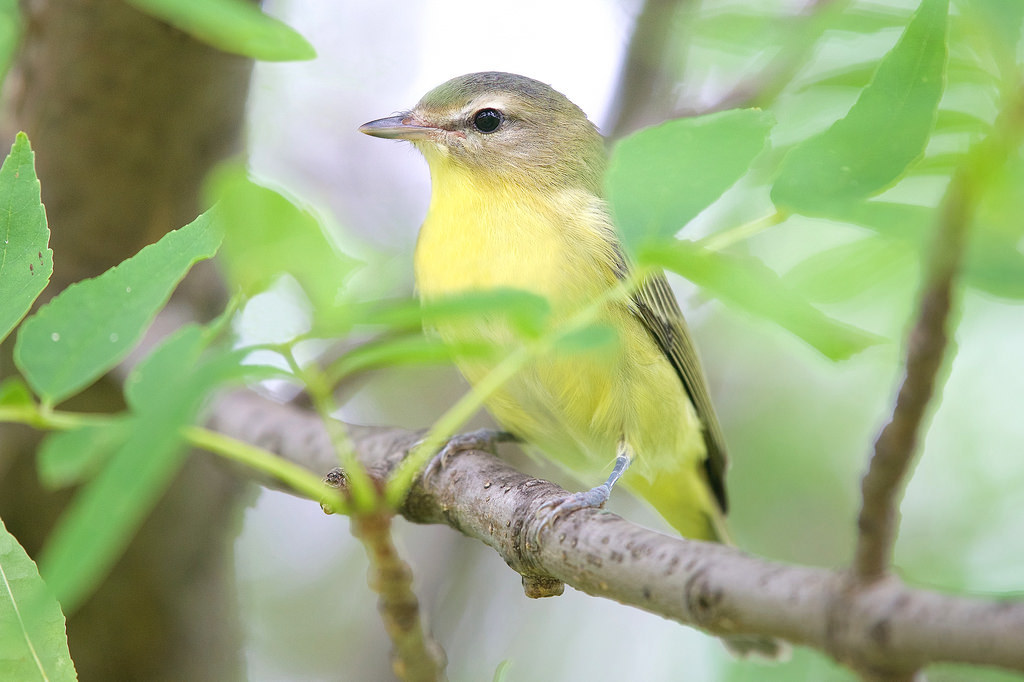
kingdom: Animalia
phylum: Chordata
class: Aves
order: Passeriformes
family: Vireonidae
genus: Vireo
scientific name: Vireo philadelphicus
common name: Philadelphia vireo
